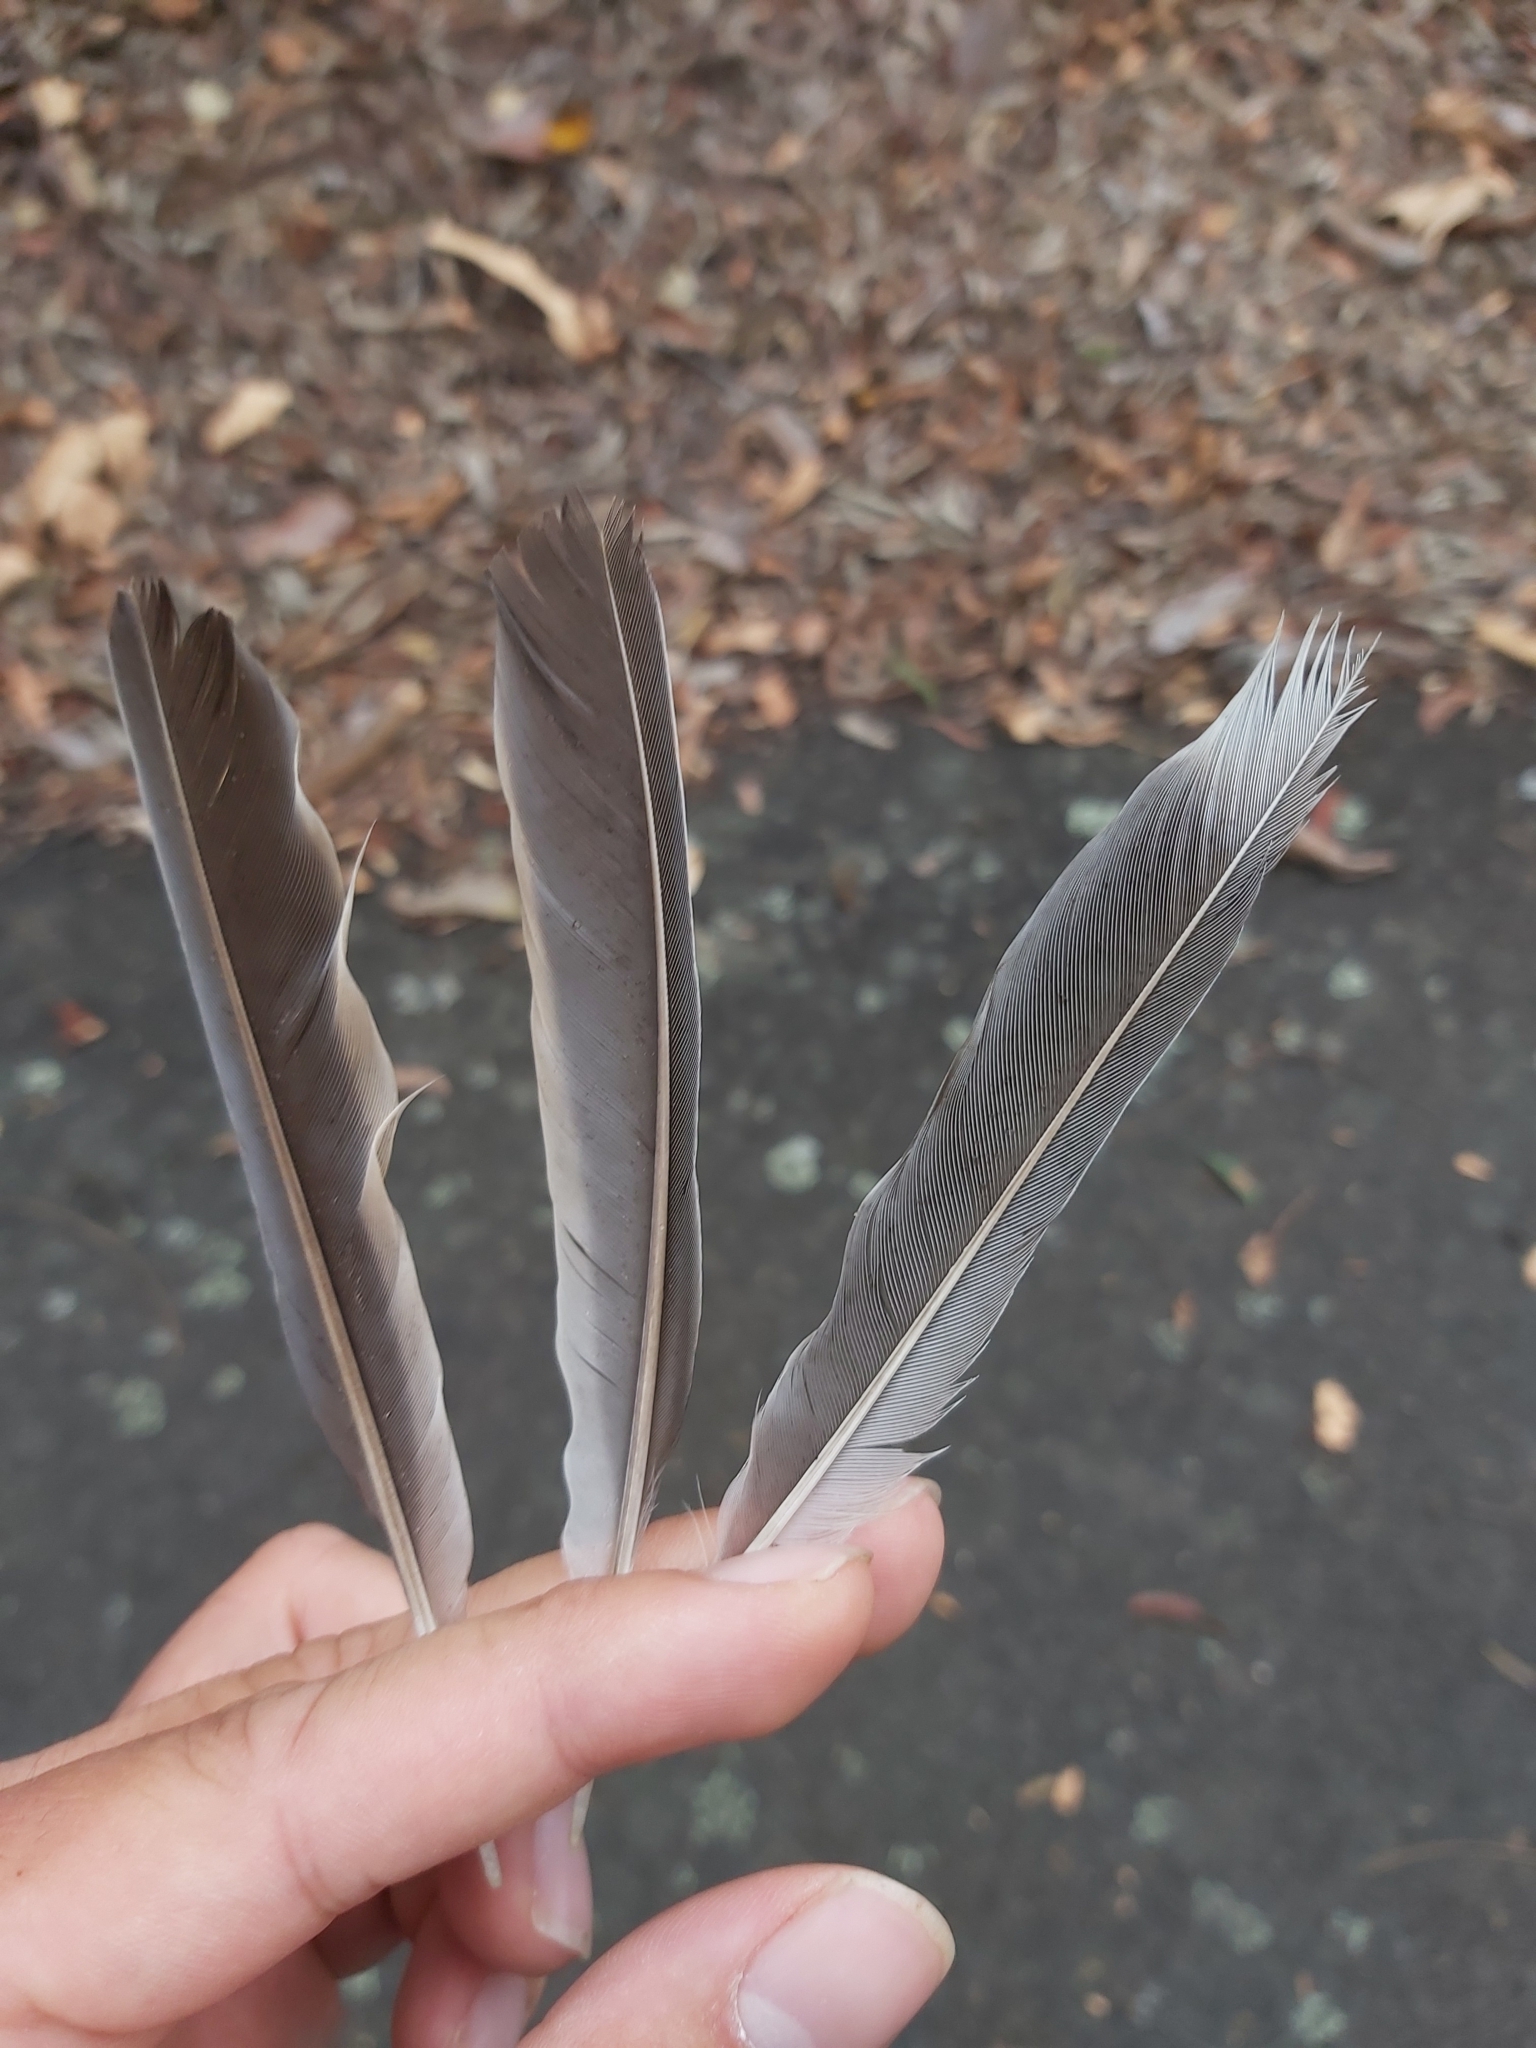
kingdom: Animalia
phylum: Chordata
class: Aves
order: Passeriformes
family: Meliphagidae
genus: Manorina
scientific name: Manorina melanocephala
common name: Noisy miner
